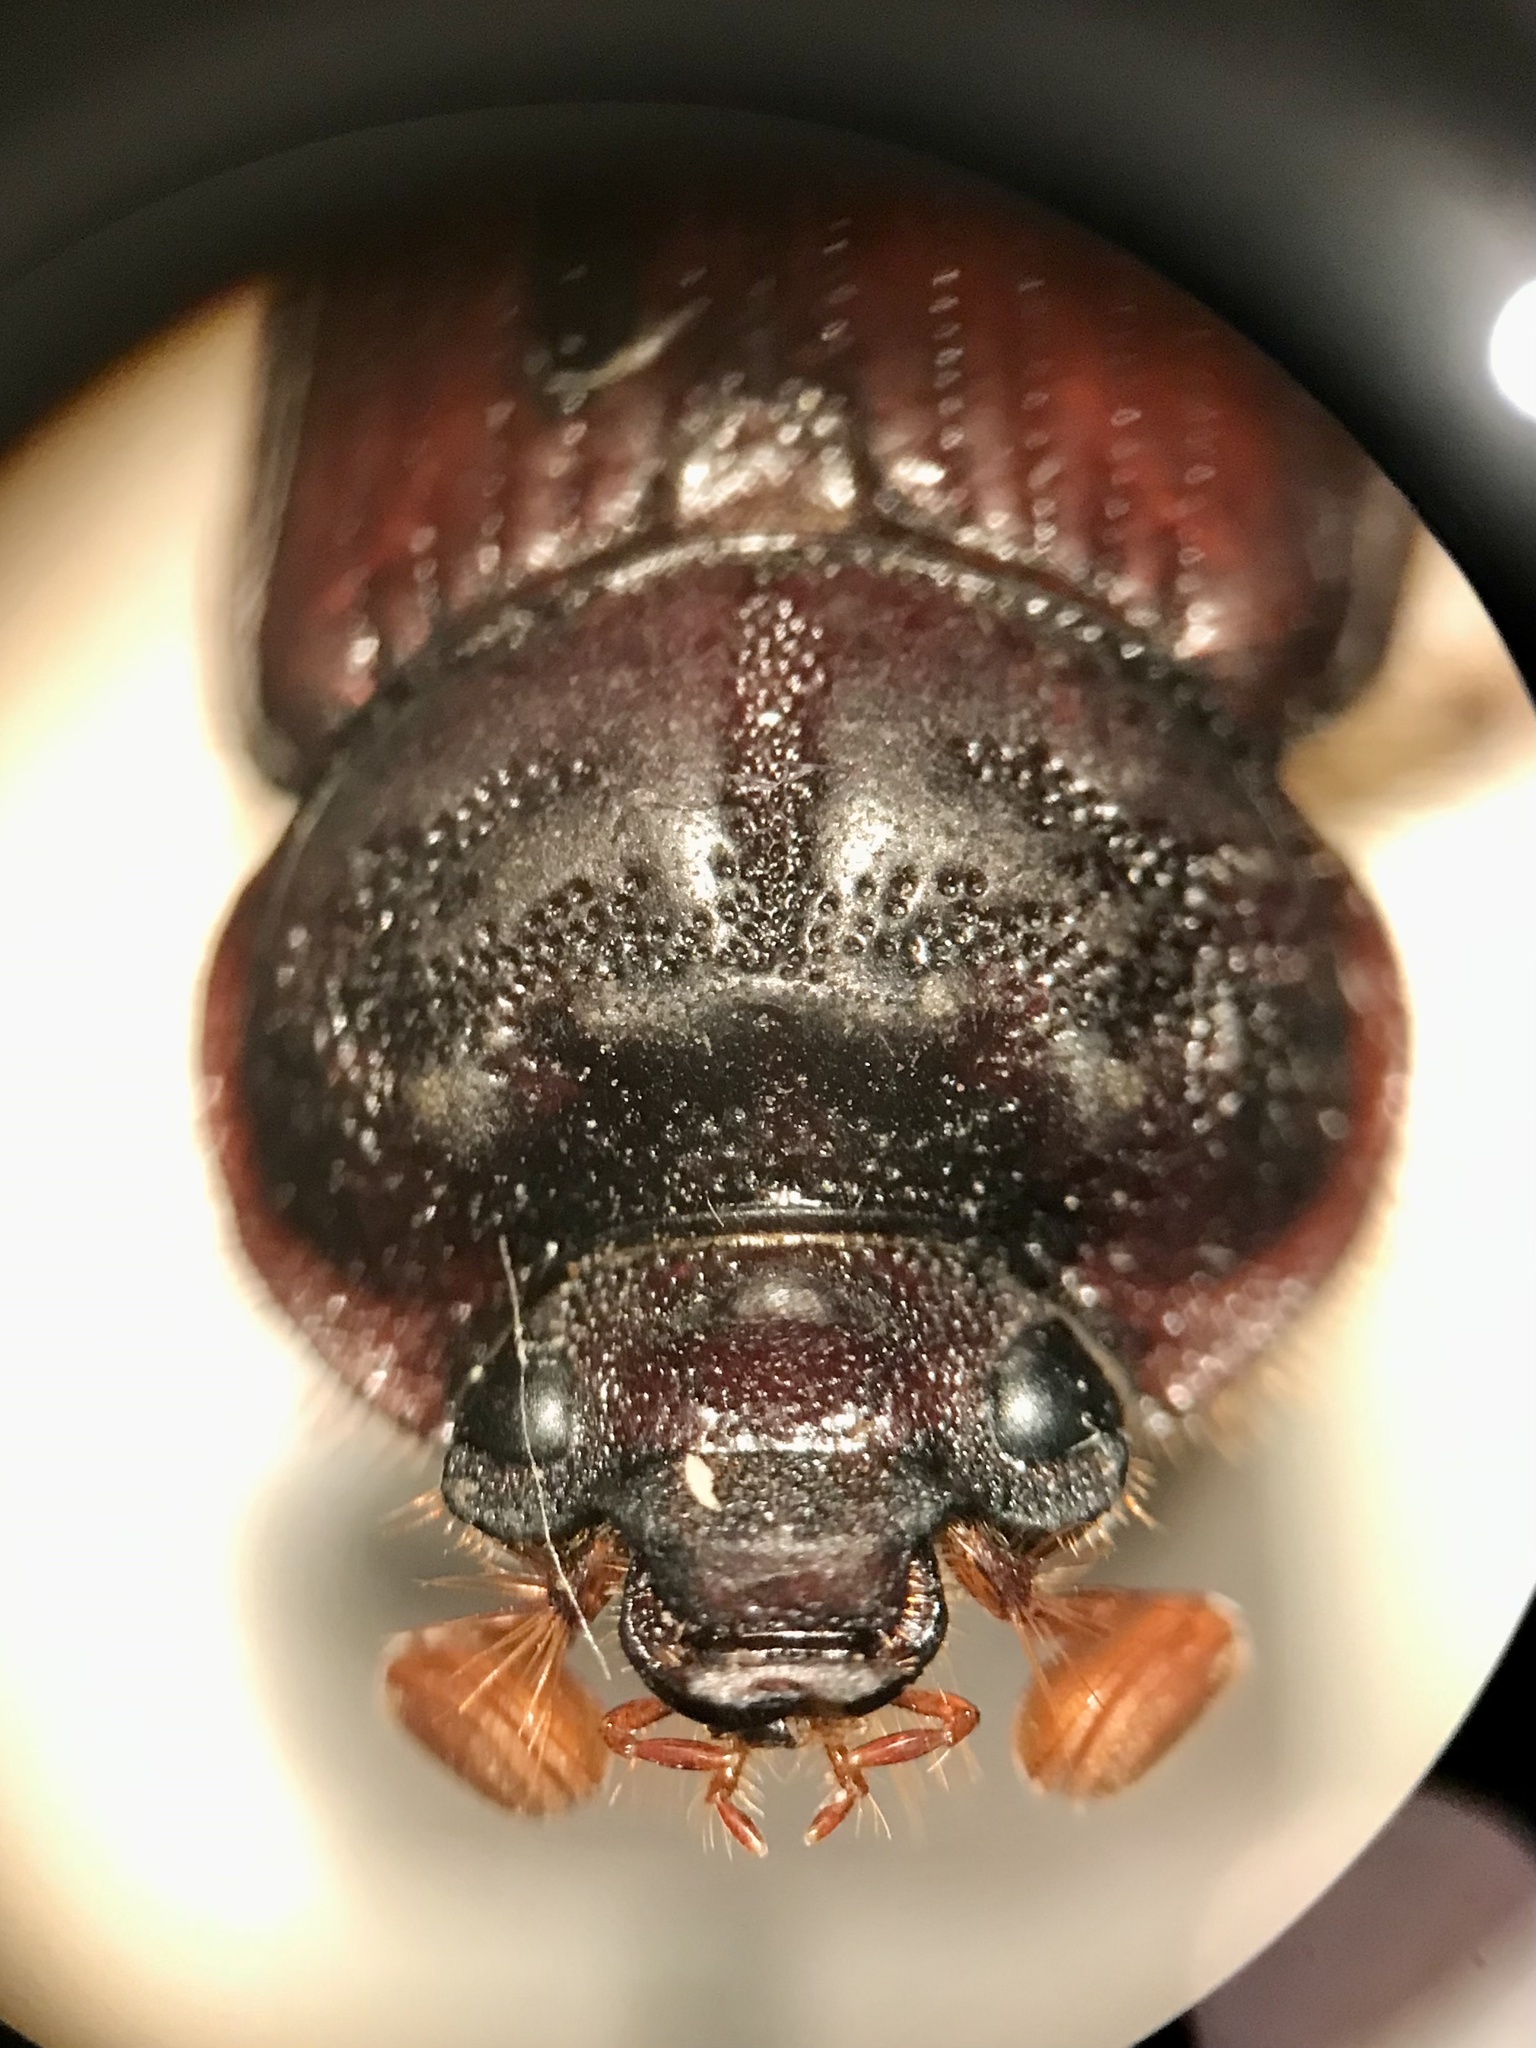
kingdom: Animalia
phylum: Arthropoda
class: Insecta
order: Coleoptera
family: Geotrupidae
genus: Bolbelasmus
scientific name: Bolbelasmus lazarus
